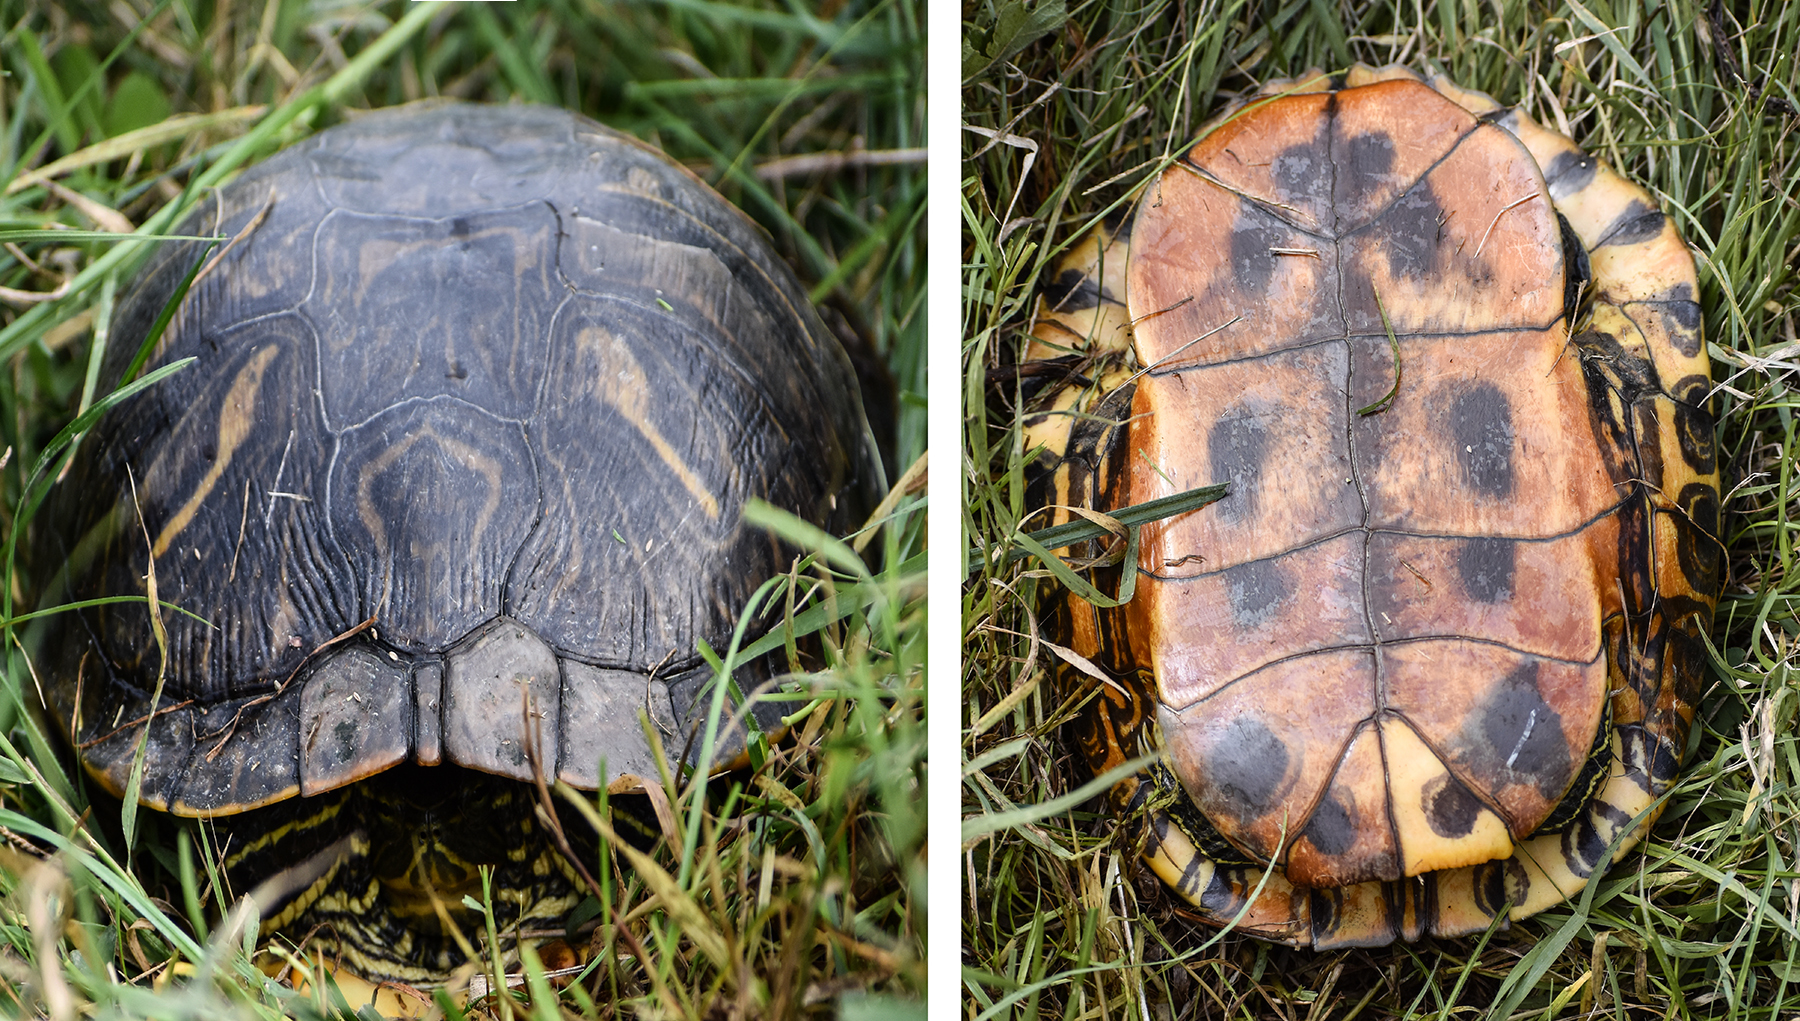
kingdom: Animalia
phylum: Chordata
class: Testudines
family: Emydidae
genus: Trachemys
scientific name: Trachemys scripta
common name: Slider
